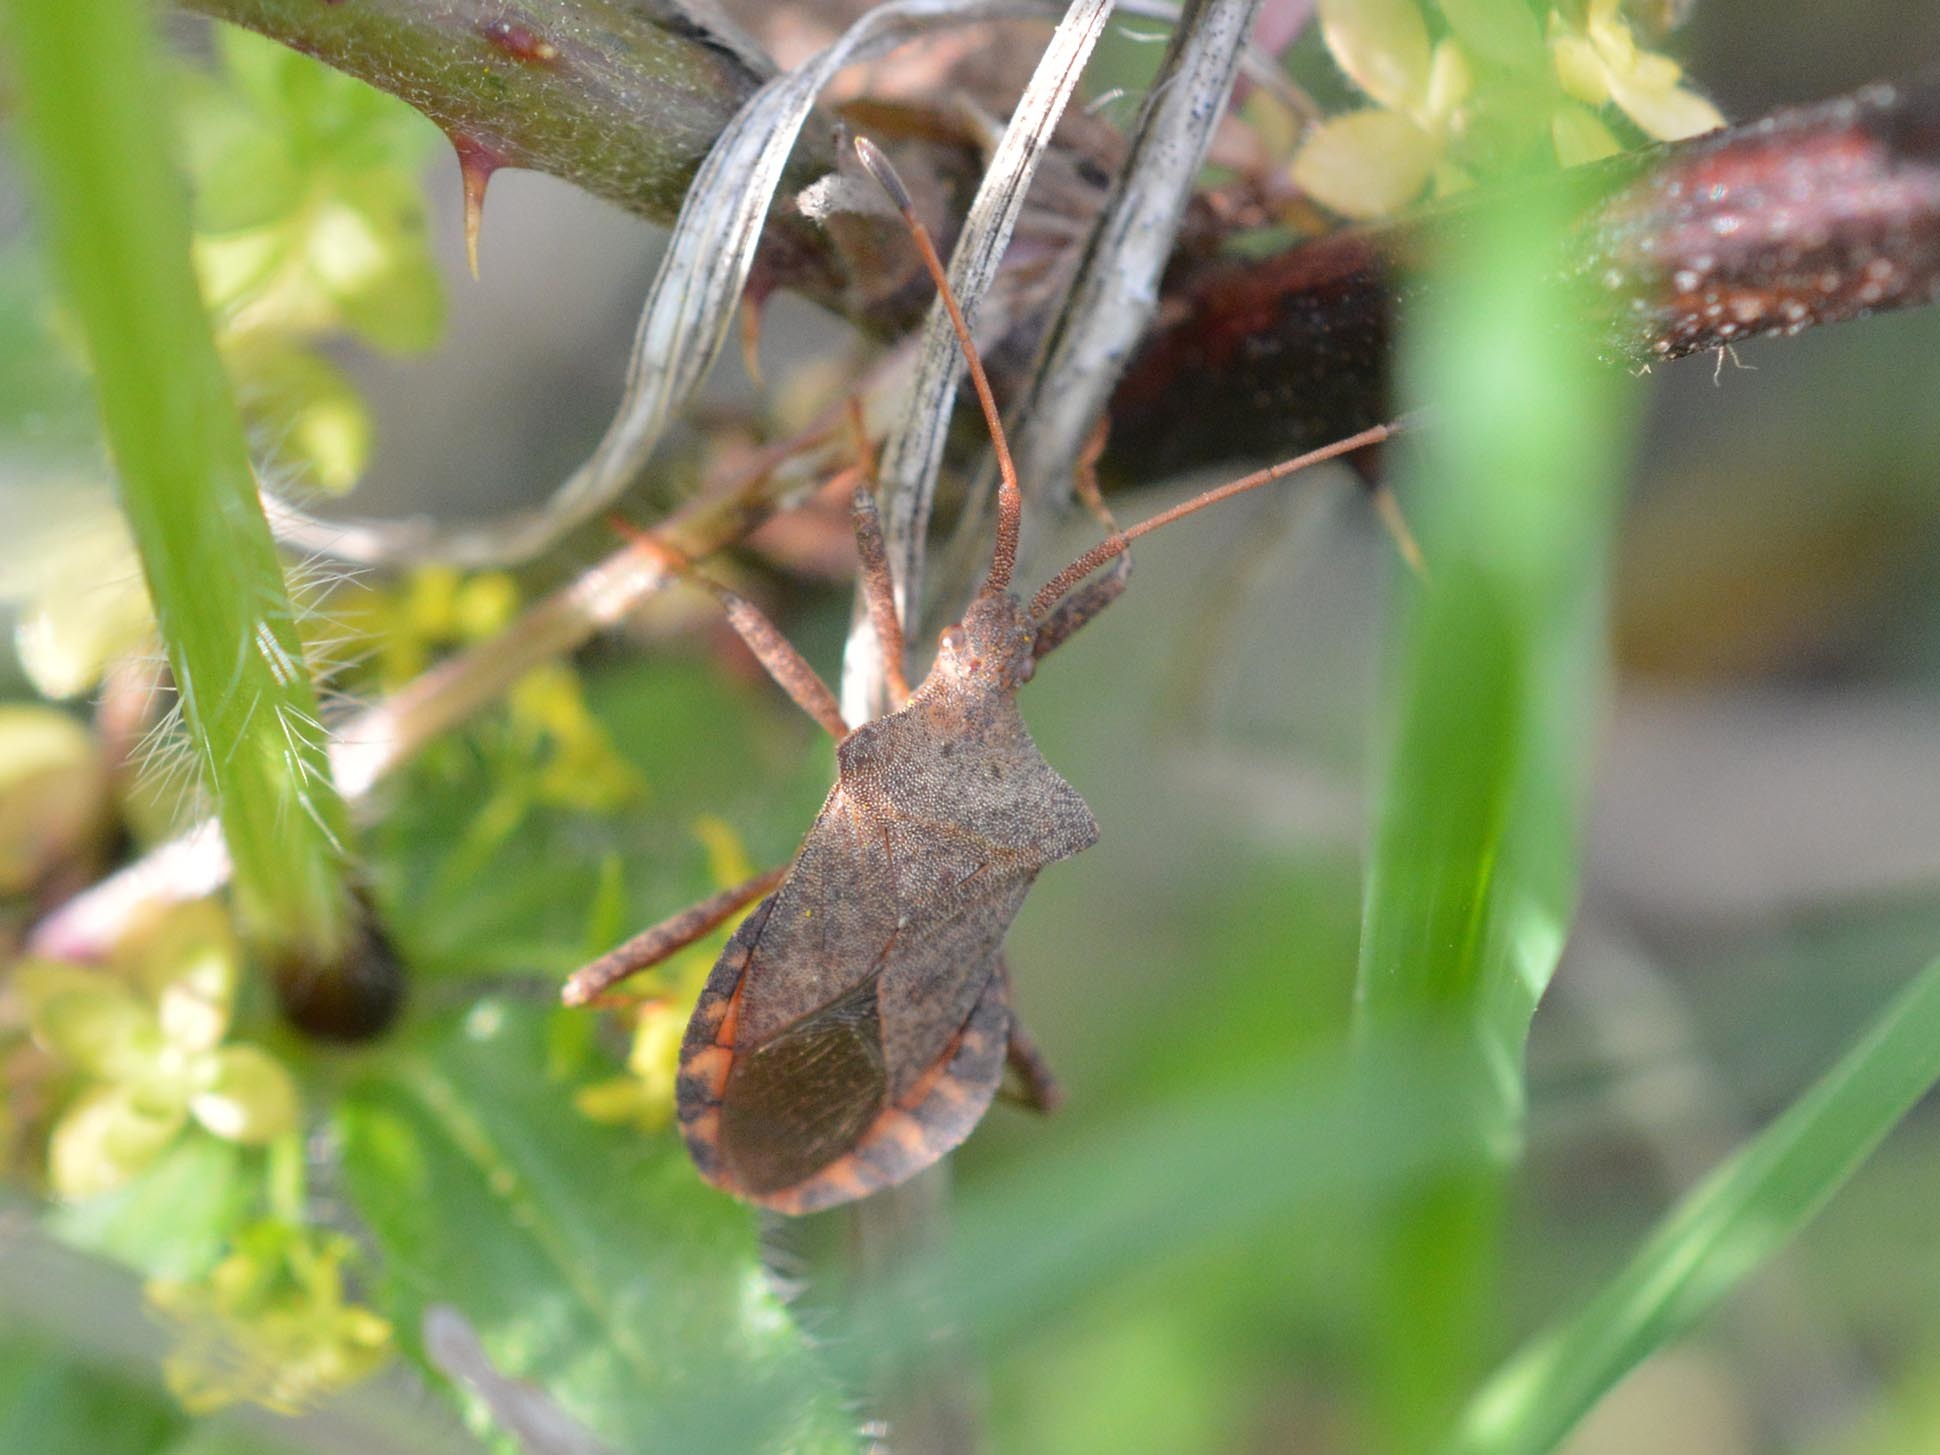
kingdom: Animalia
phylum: Arthropoda
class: Insecta
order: Hemiptera
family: Coreidae
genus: Coreus
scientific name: Coreus marginatus
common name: Dock bug
